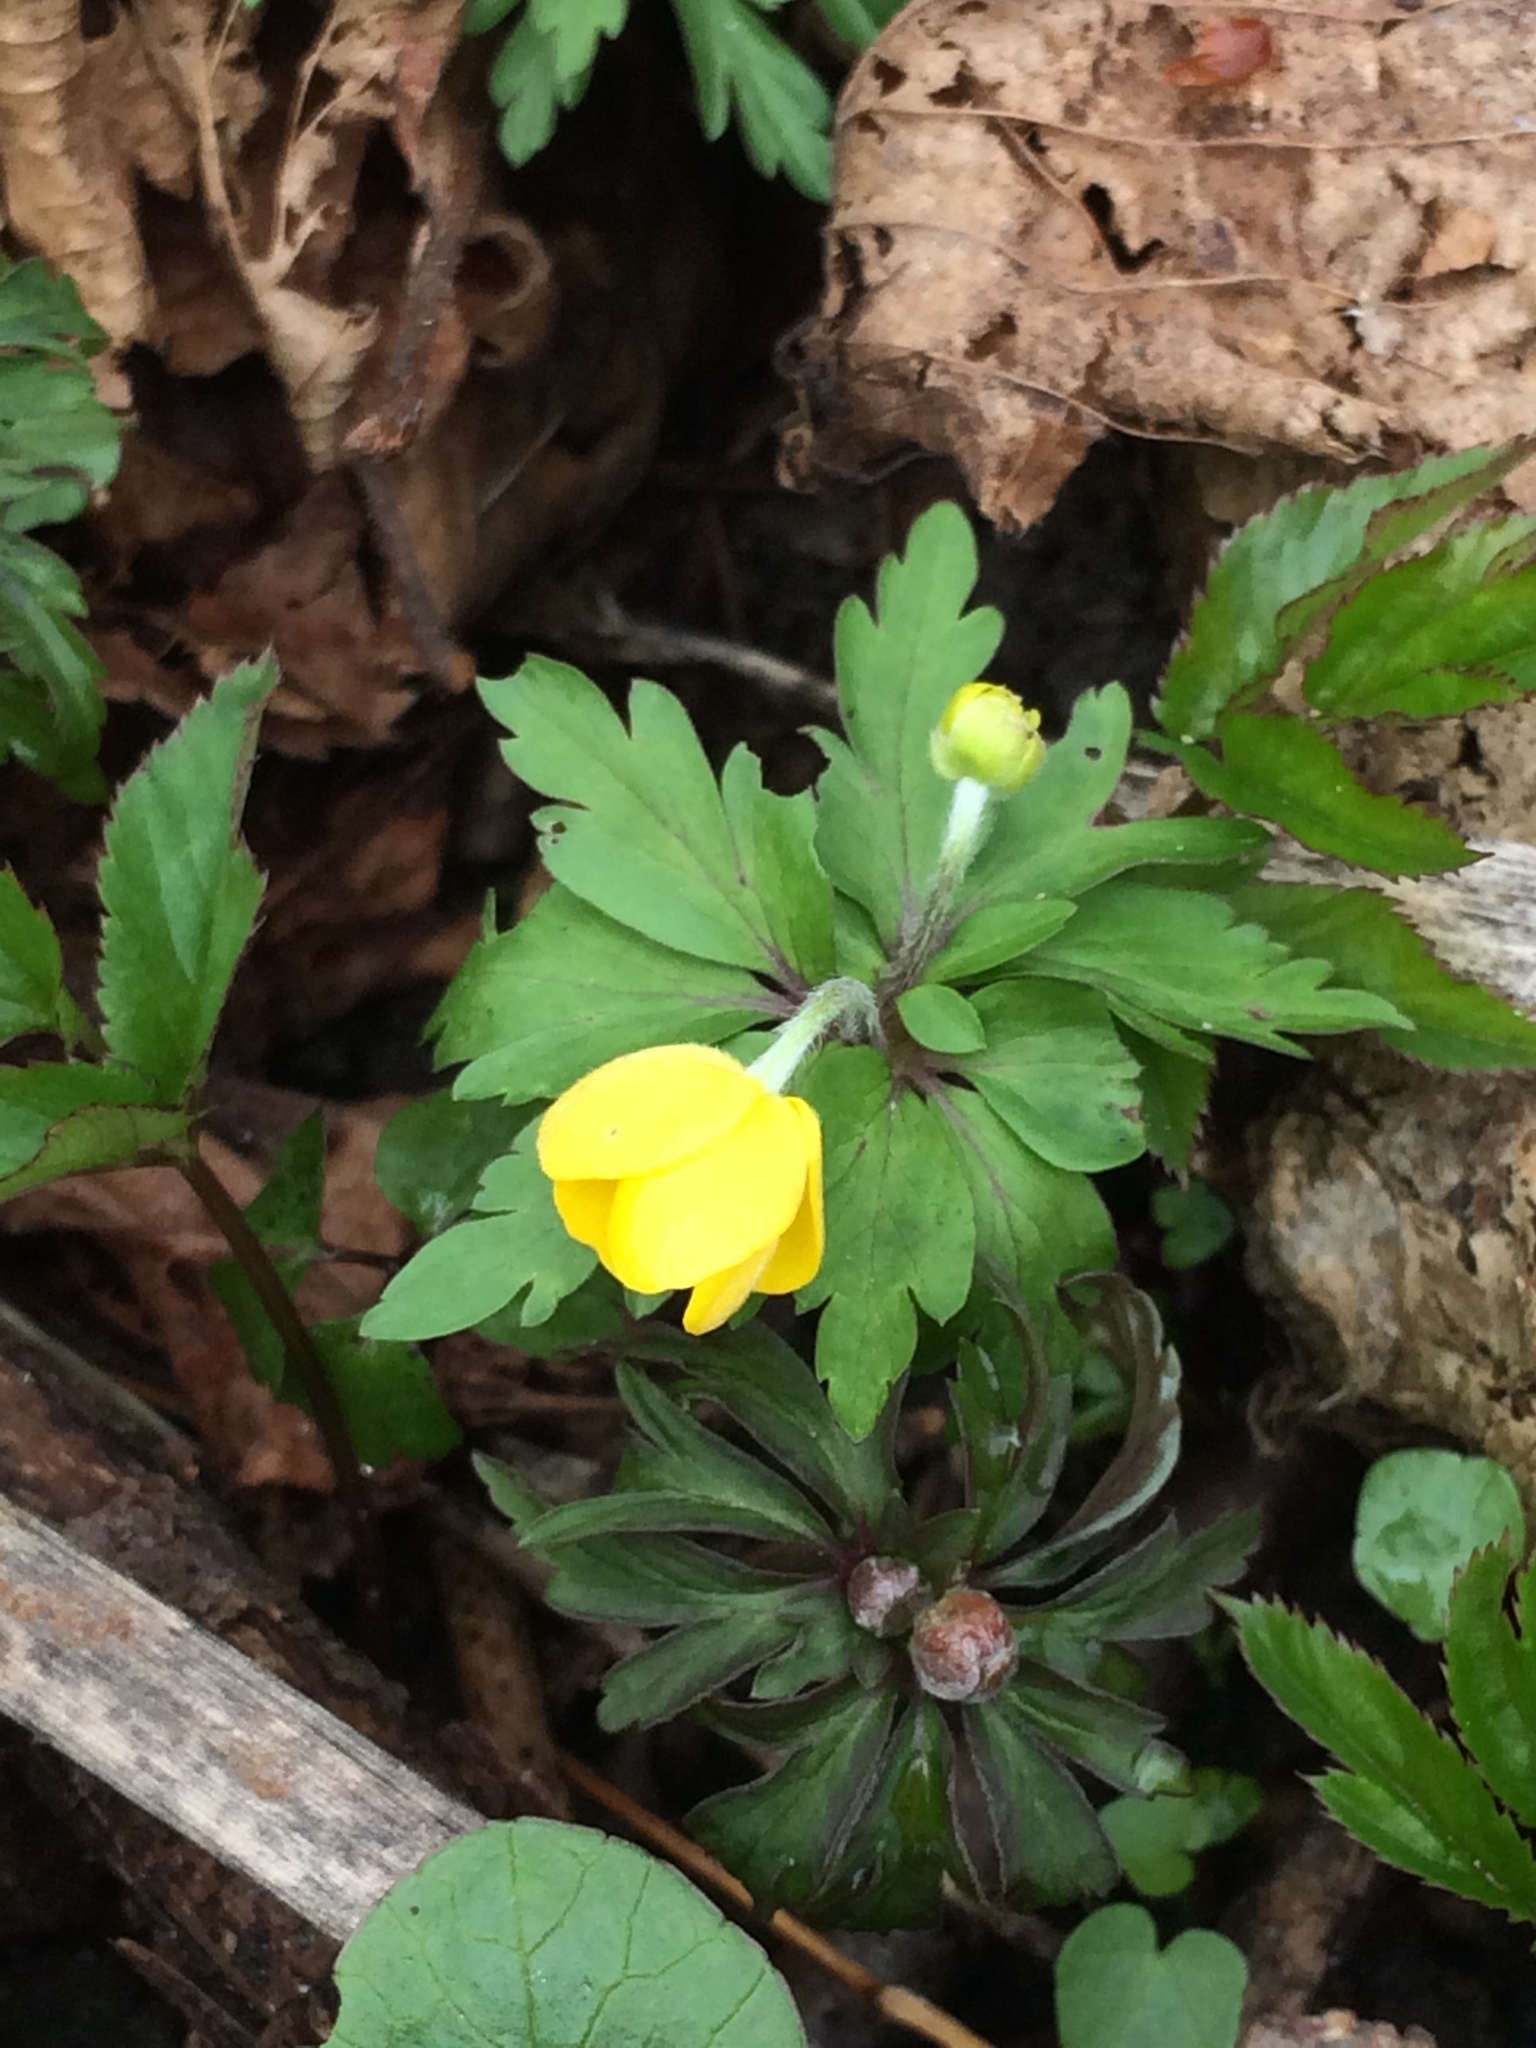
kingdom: Plantae
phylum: Tracheophyta
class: Magnoliopsida
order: Ranunculales
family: Ranunculaceae
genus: Anemone
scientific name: Anemone ranunculoides
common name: Yellow anemone
